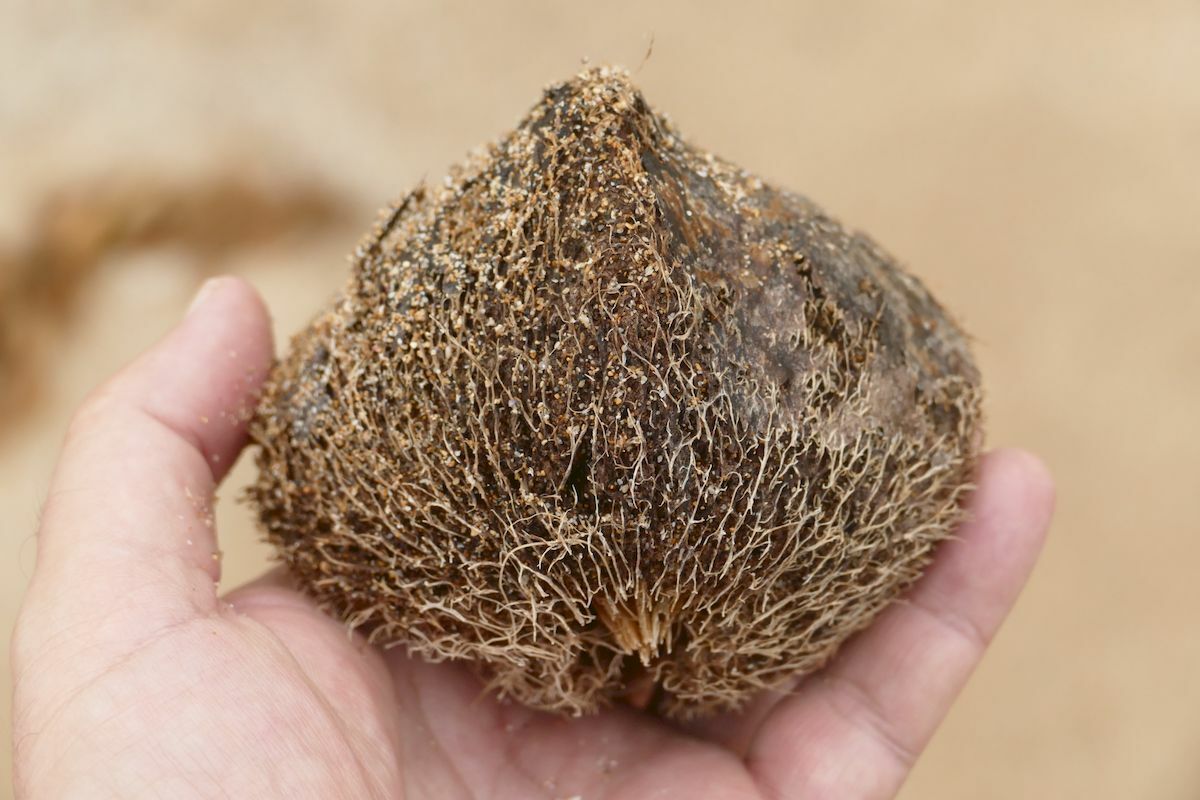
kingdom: Plantae
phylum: Tracheophyta
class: Magnoliopsida
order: Ericales
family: Lecythidaceae
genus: Barringtonia
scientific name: Barringtonia asiatica
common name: Mango-pine
